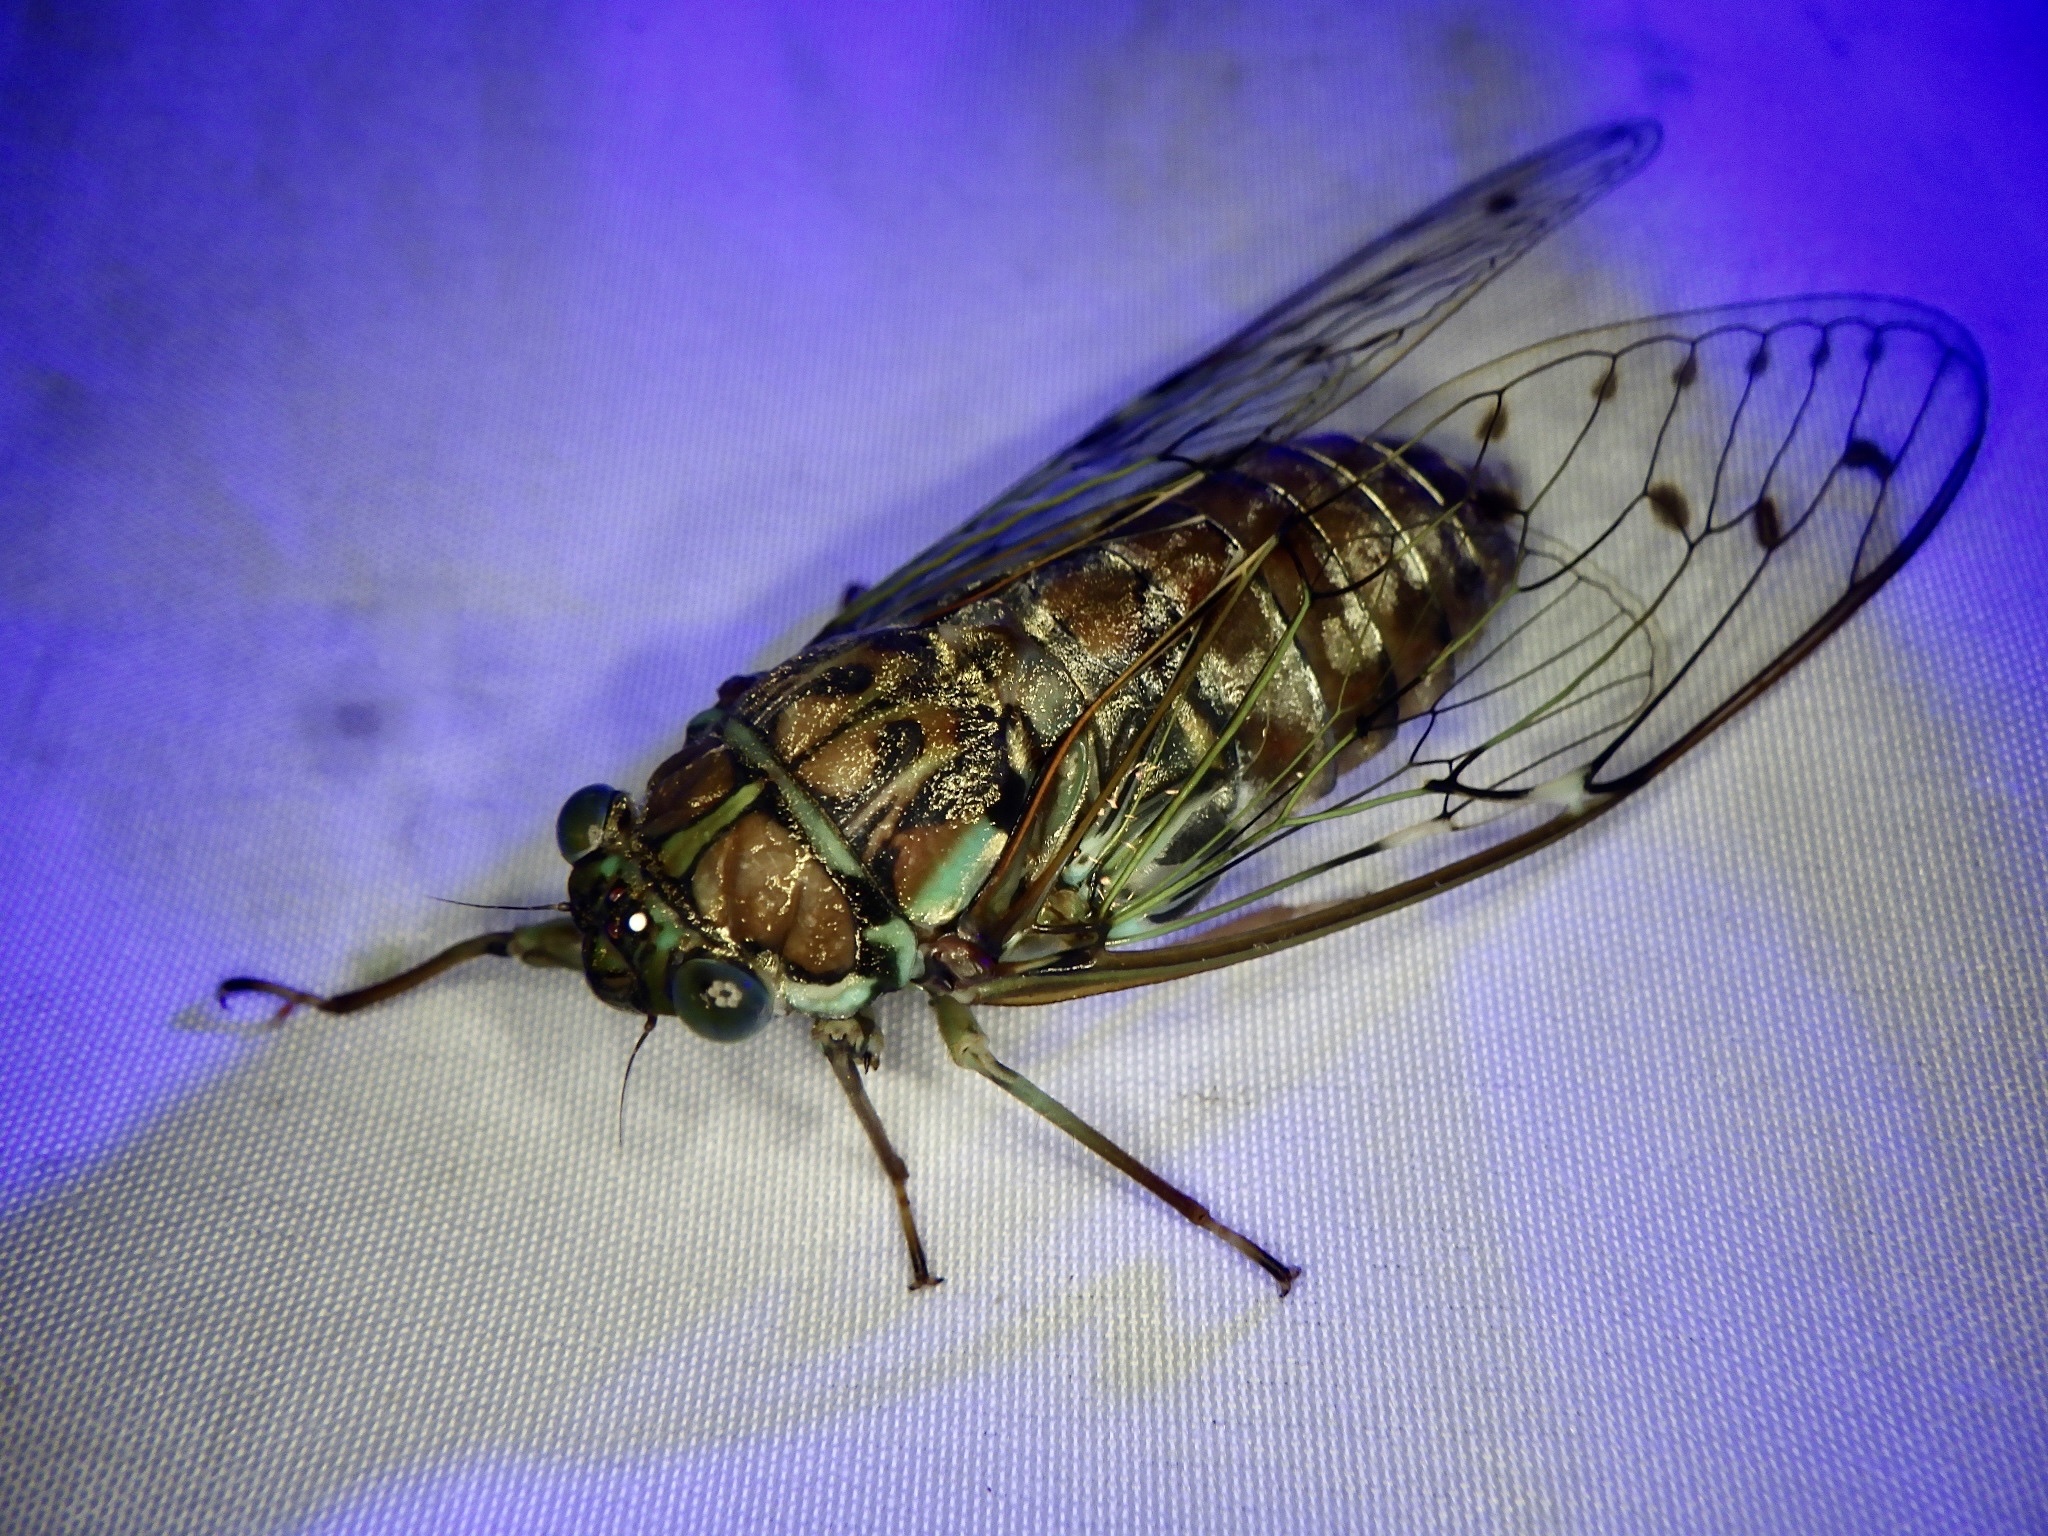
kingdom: Animalia
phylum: Arthropoda
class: Insecta
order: Hemiptera
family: Cicadidae
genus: Tanna
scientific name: Tanna japonensis
